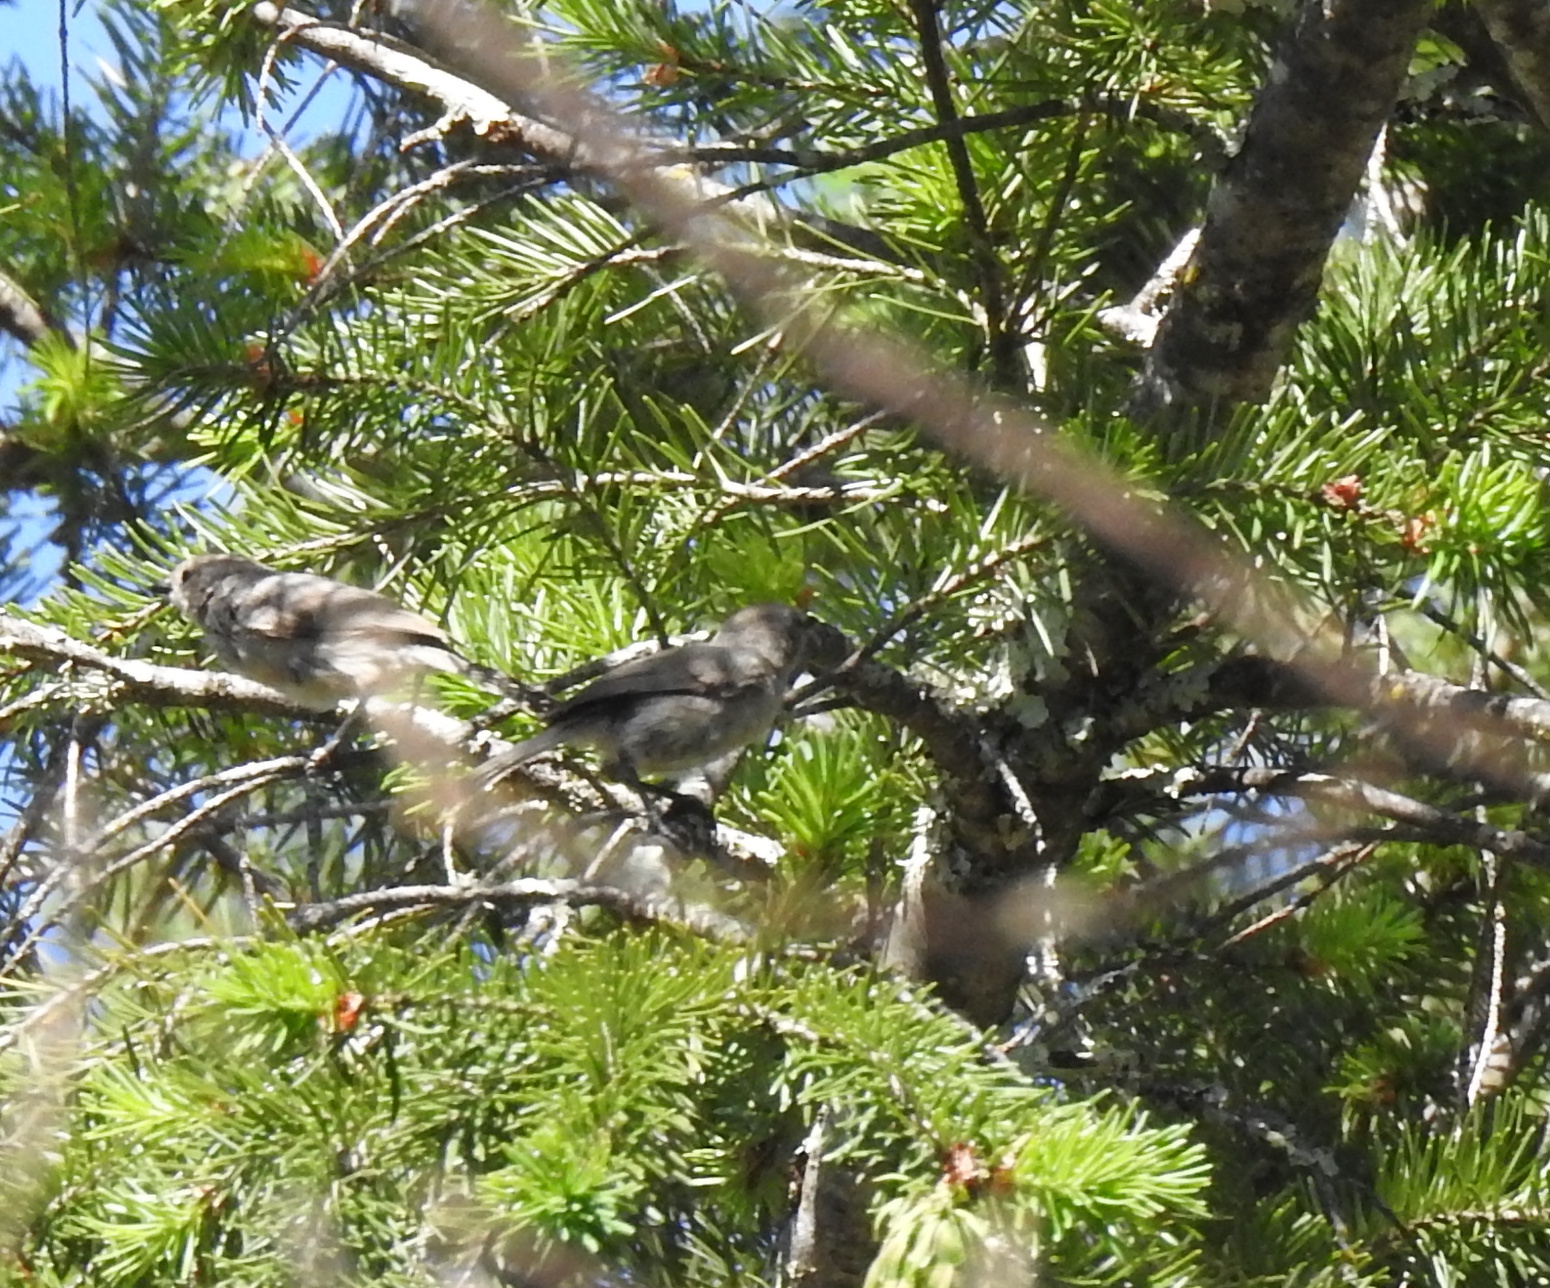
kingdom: Animalia
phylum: Chordata
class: Aves
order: Passeriformes
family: Aegithalidae
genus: Psaltriparus
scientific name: Psaltriparus minimus
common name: American bushtit
